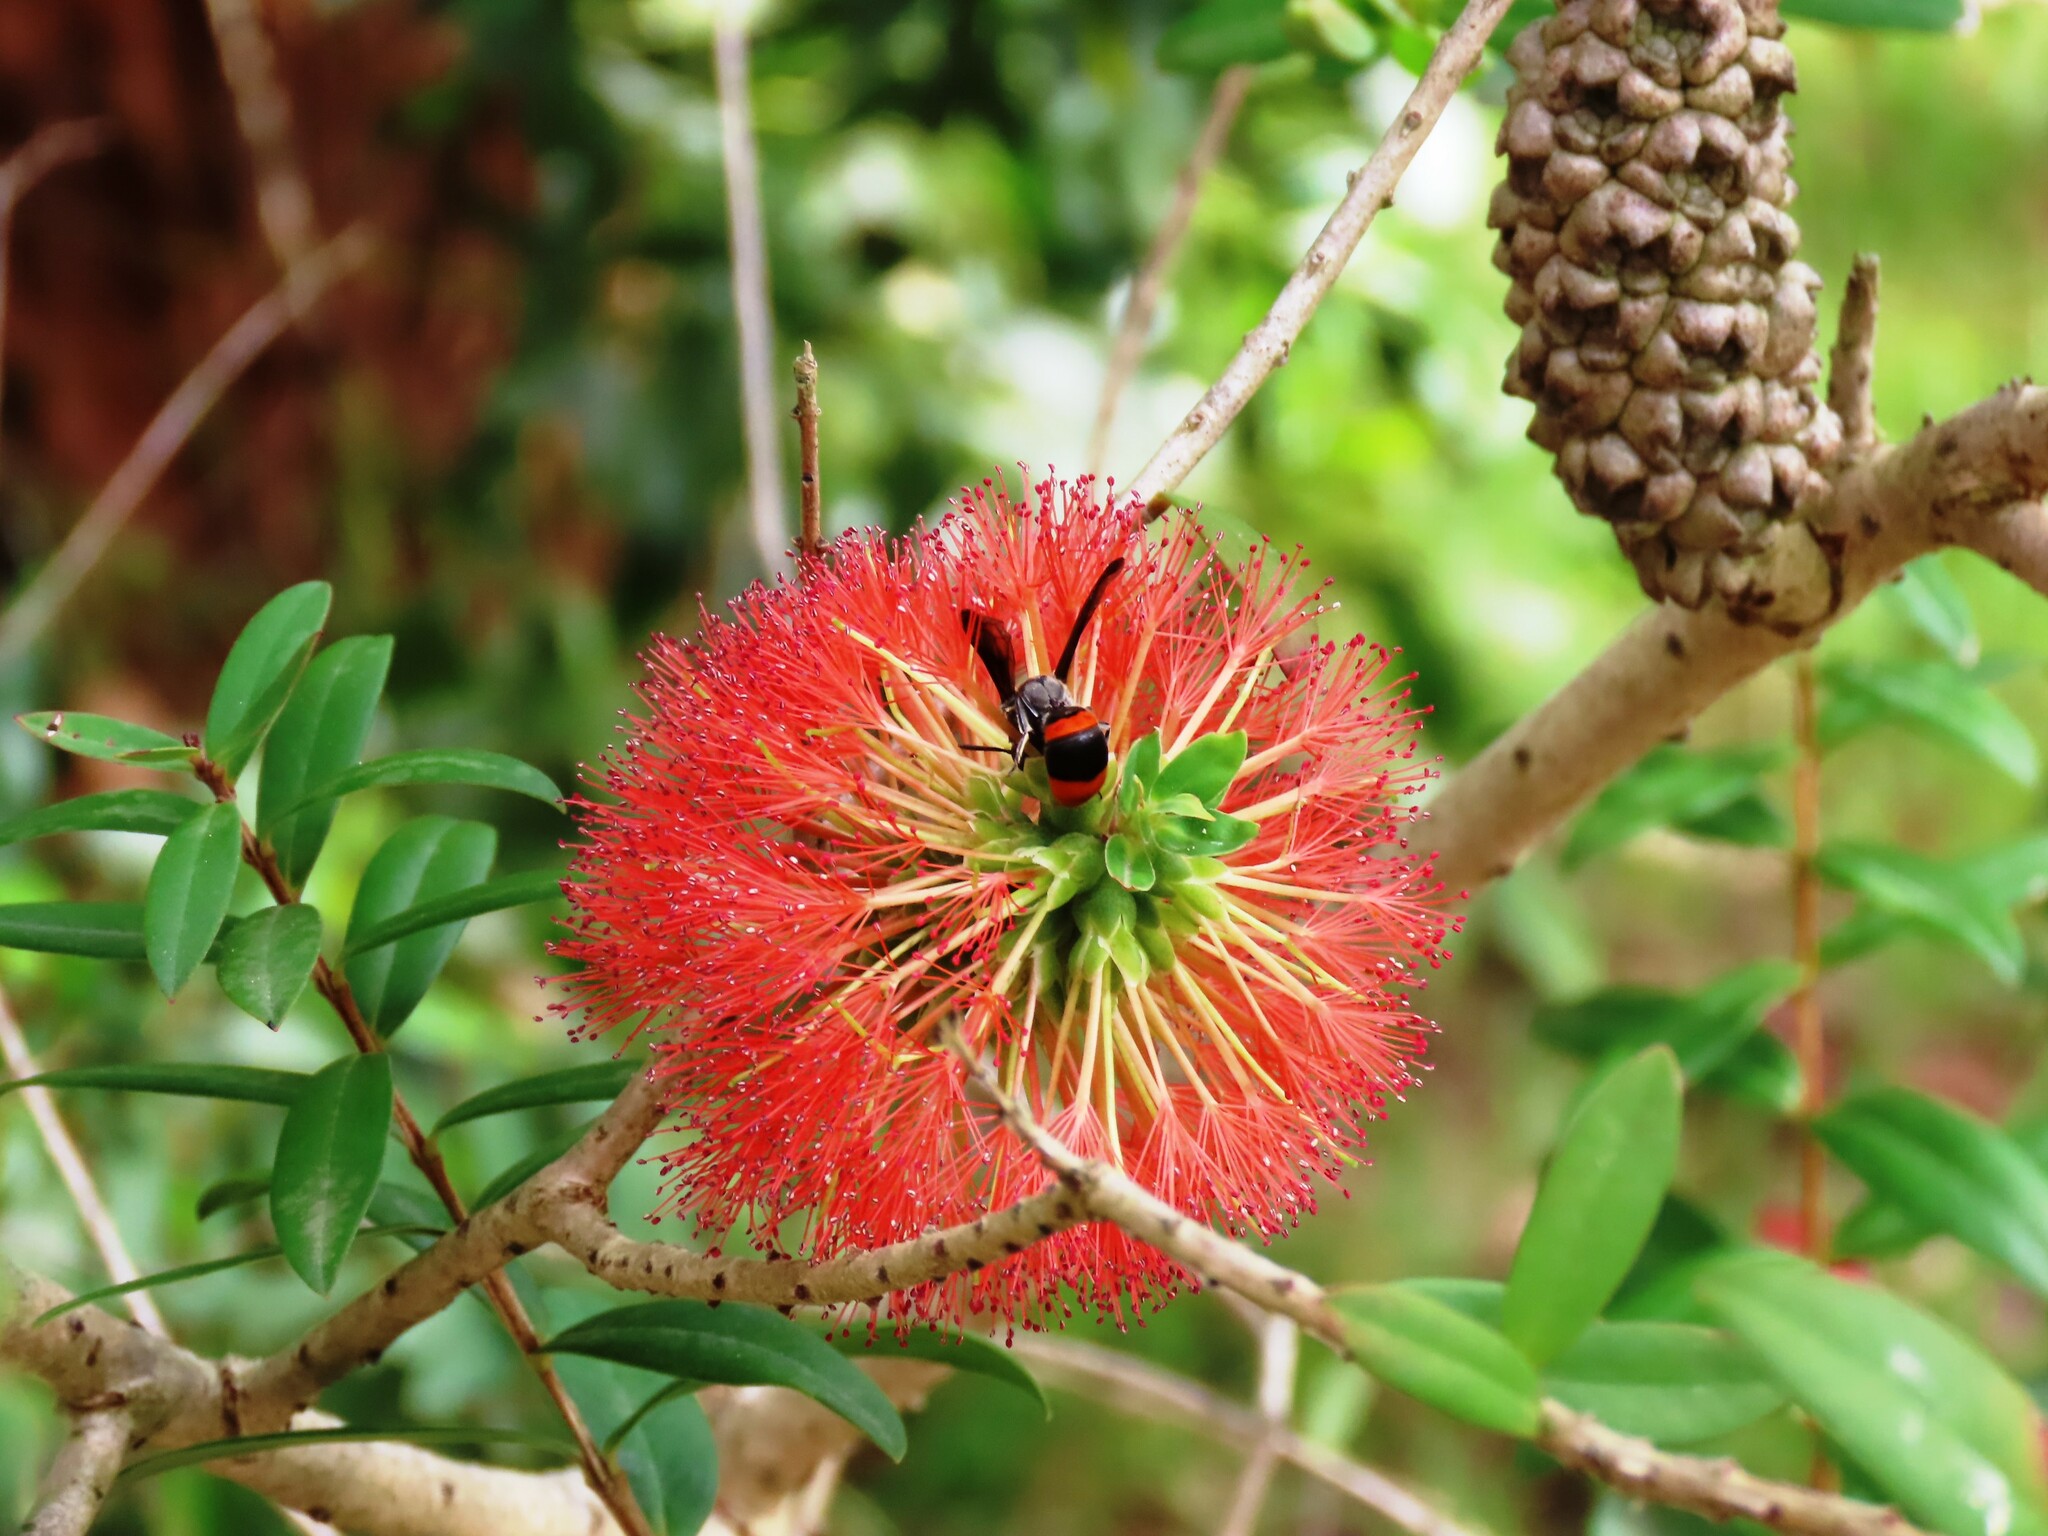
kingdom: Animalia
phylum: Arthropoda
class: Insecta
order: Hymenoptera
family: Colletidae
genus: Hyleoides
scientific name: Hyleoides concinna
